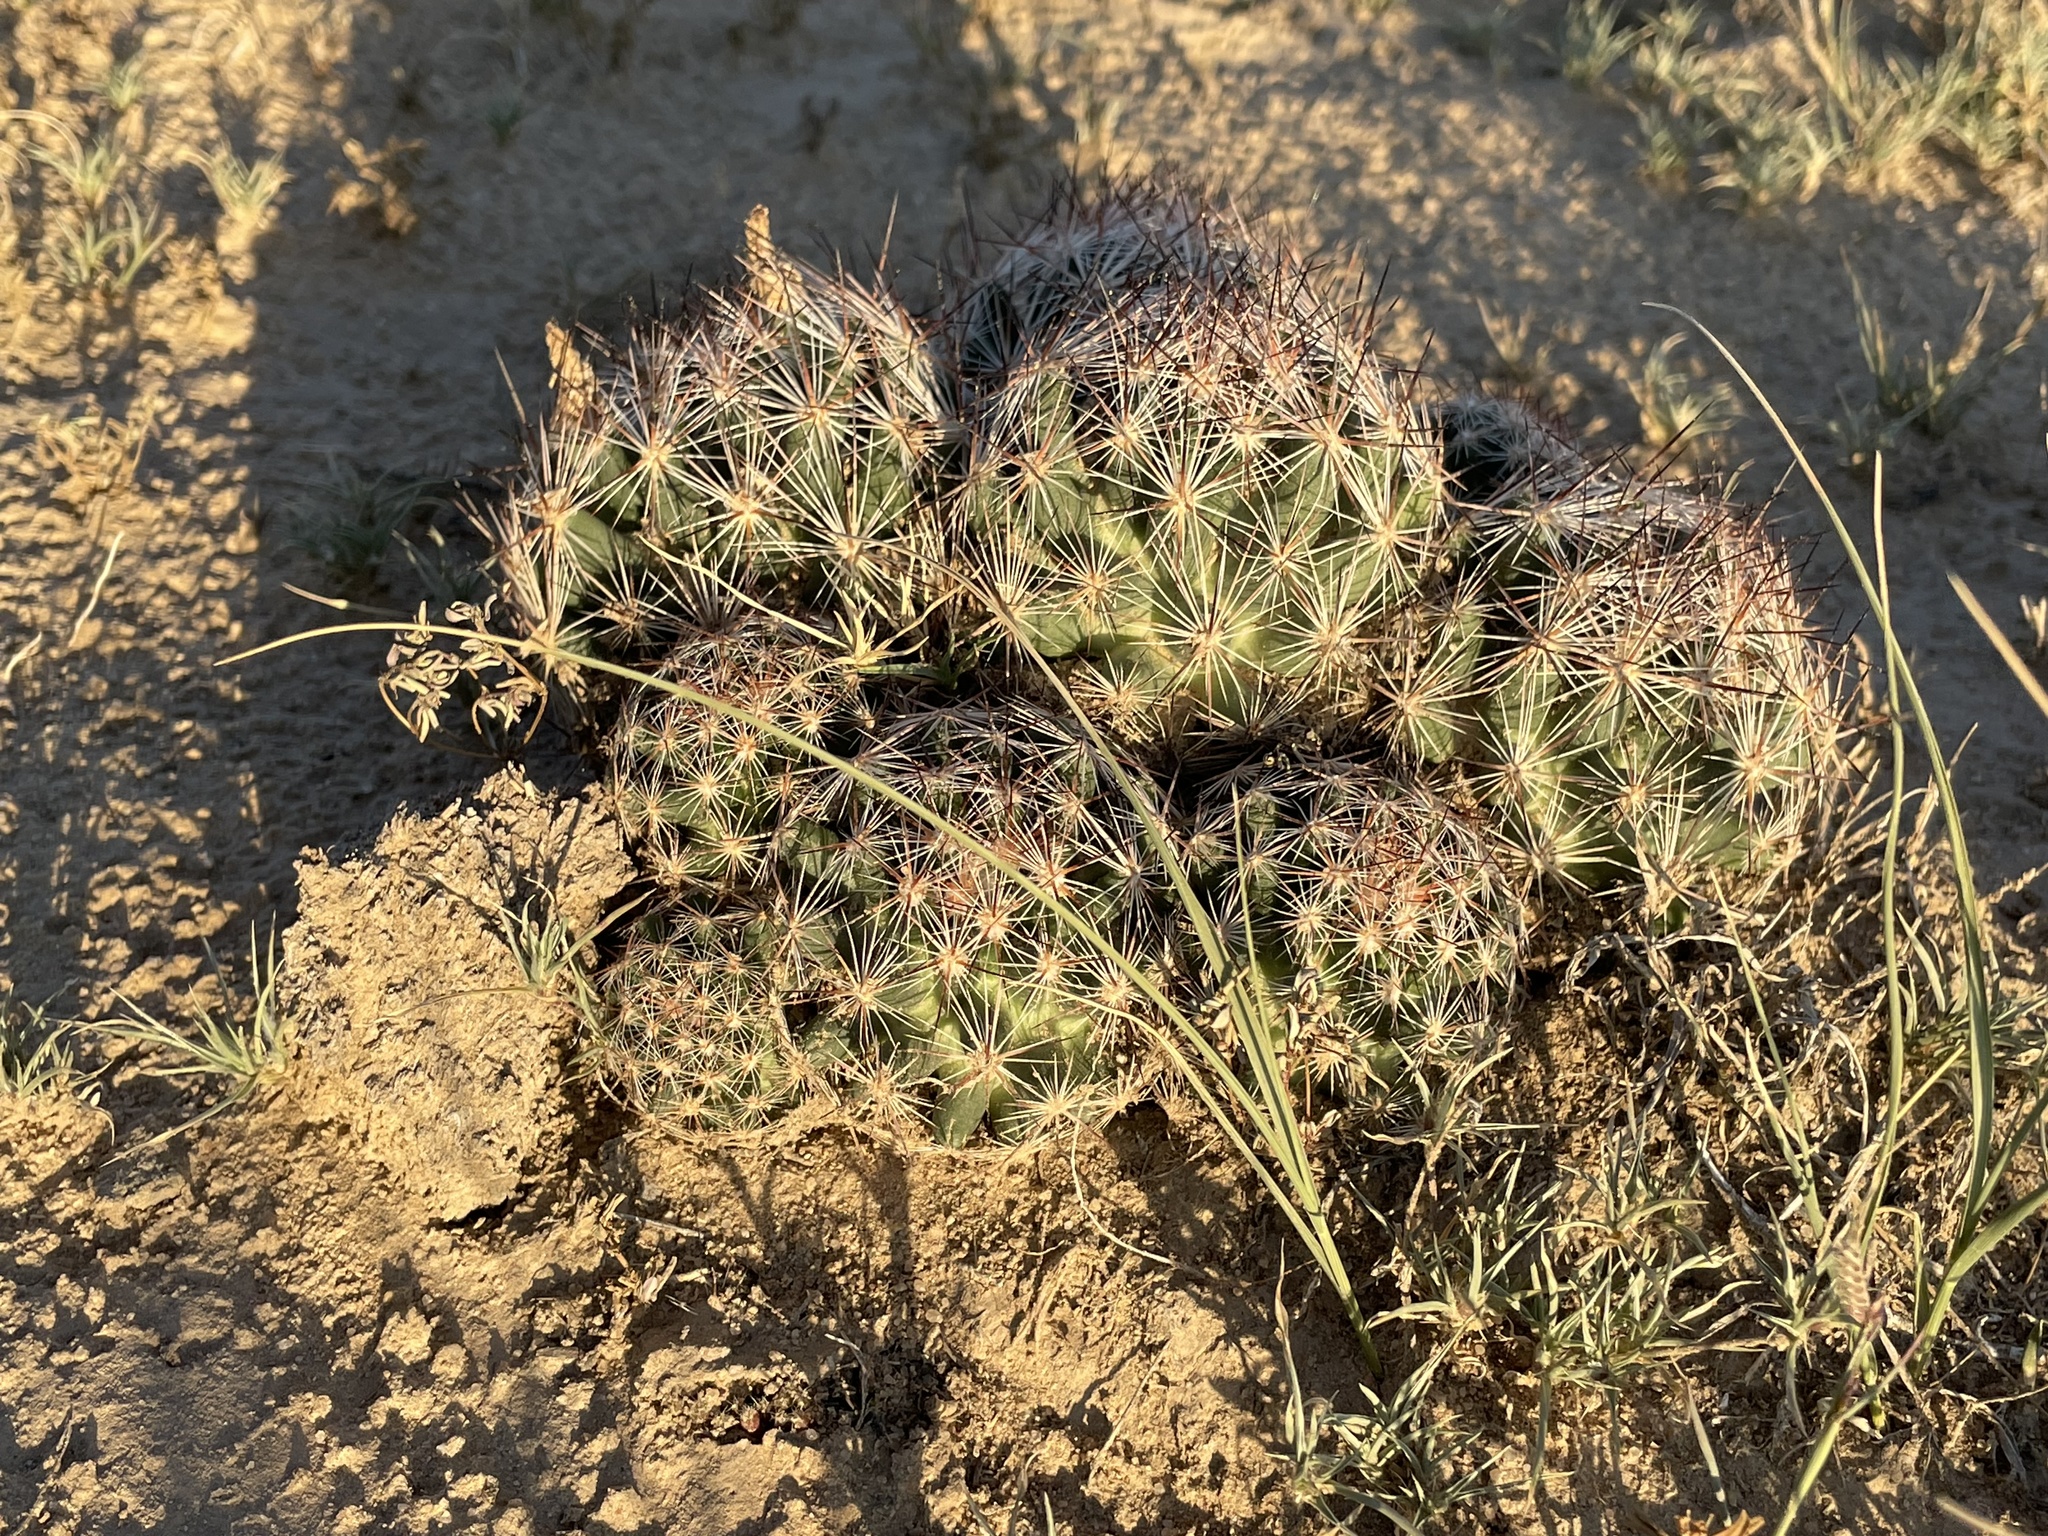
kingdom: Plantae
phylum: Tracheophyta
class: Magnoliopsida
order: Caryophyllales
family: Cactaceae
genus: Pelecyphora
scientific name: Pelecyphora vivipara
